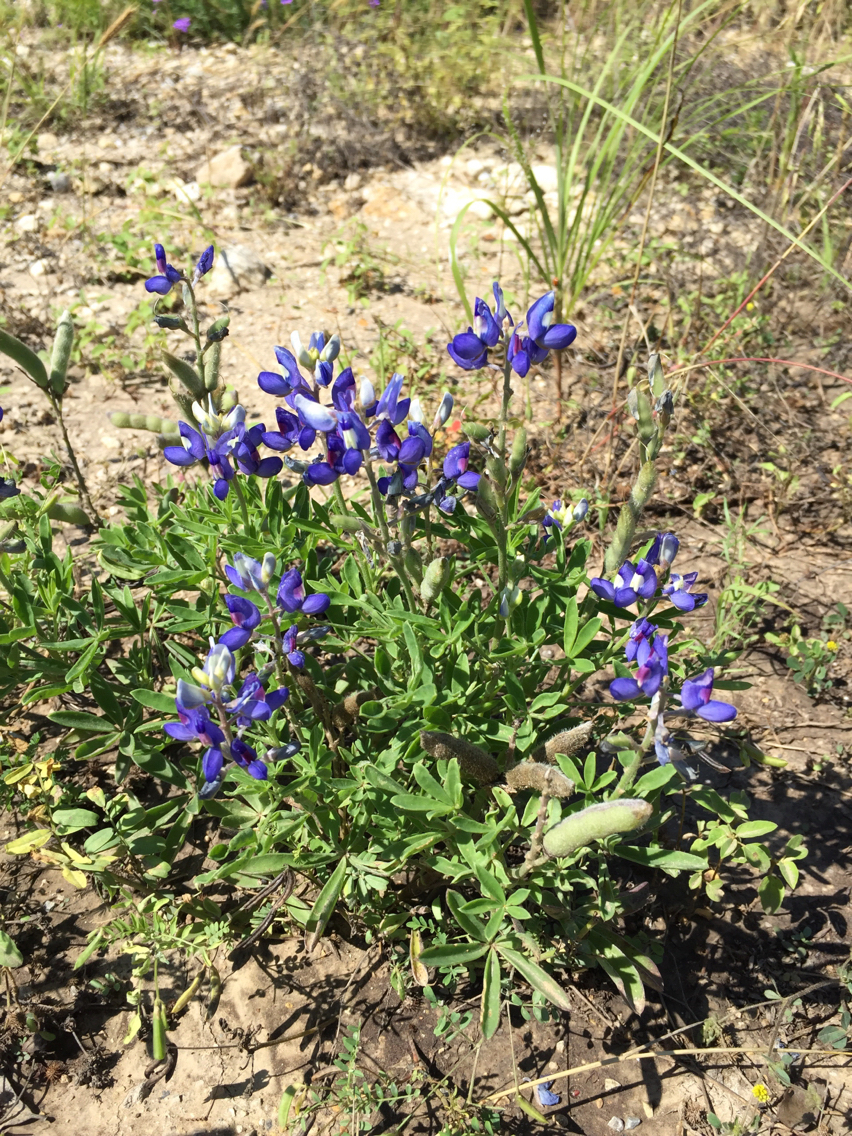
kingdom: Plantae
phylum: Tracheophyta
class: Magnoliopsida
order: Fabales
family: Fabaceae
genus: Lupinus
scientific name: Lupinus texensis
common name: Texas bluebonnet
